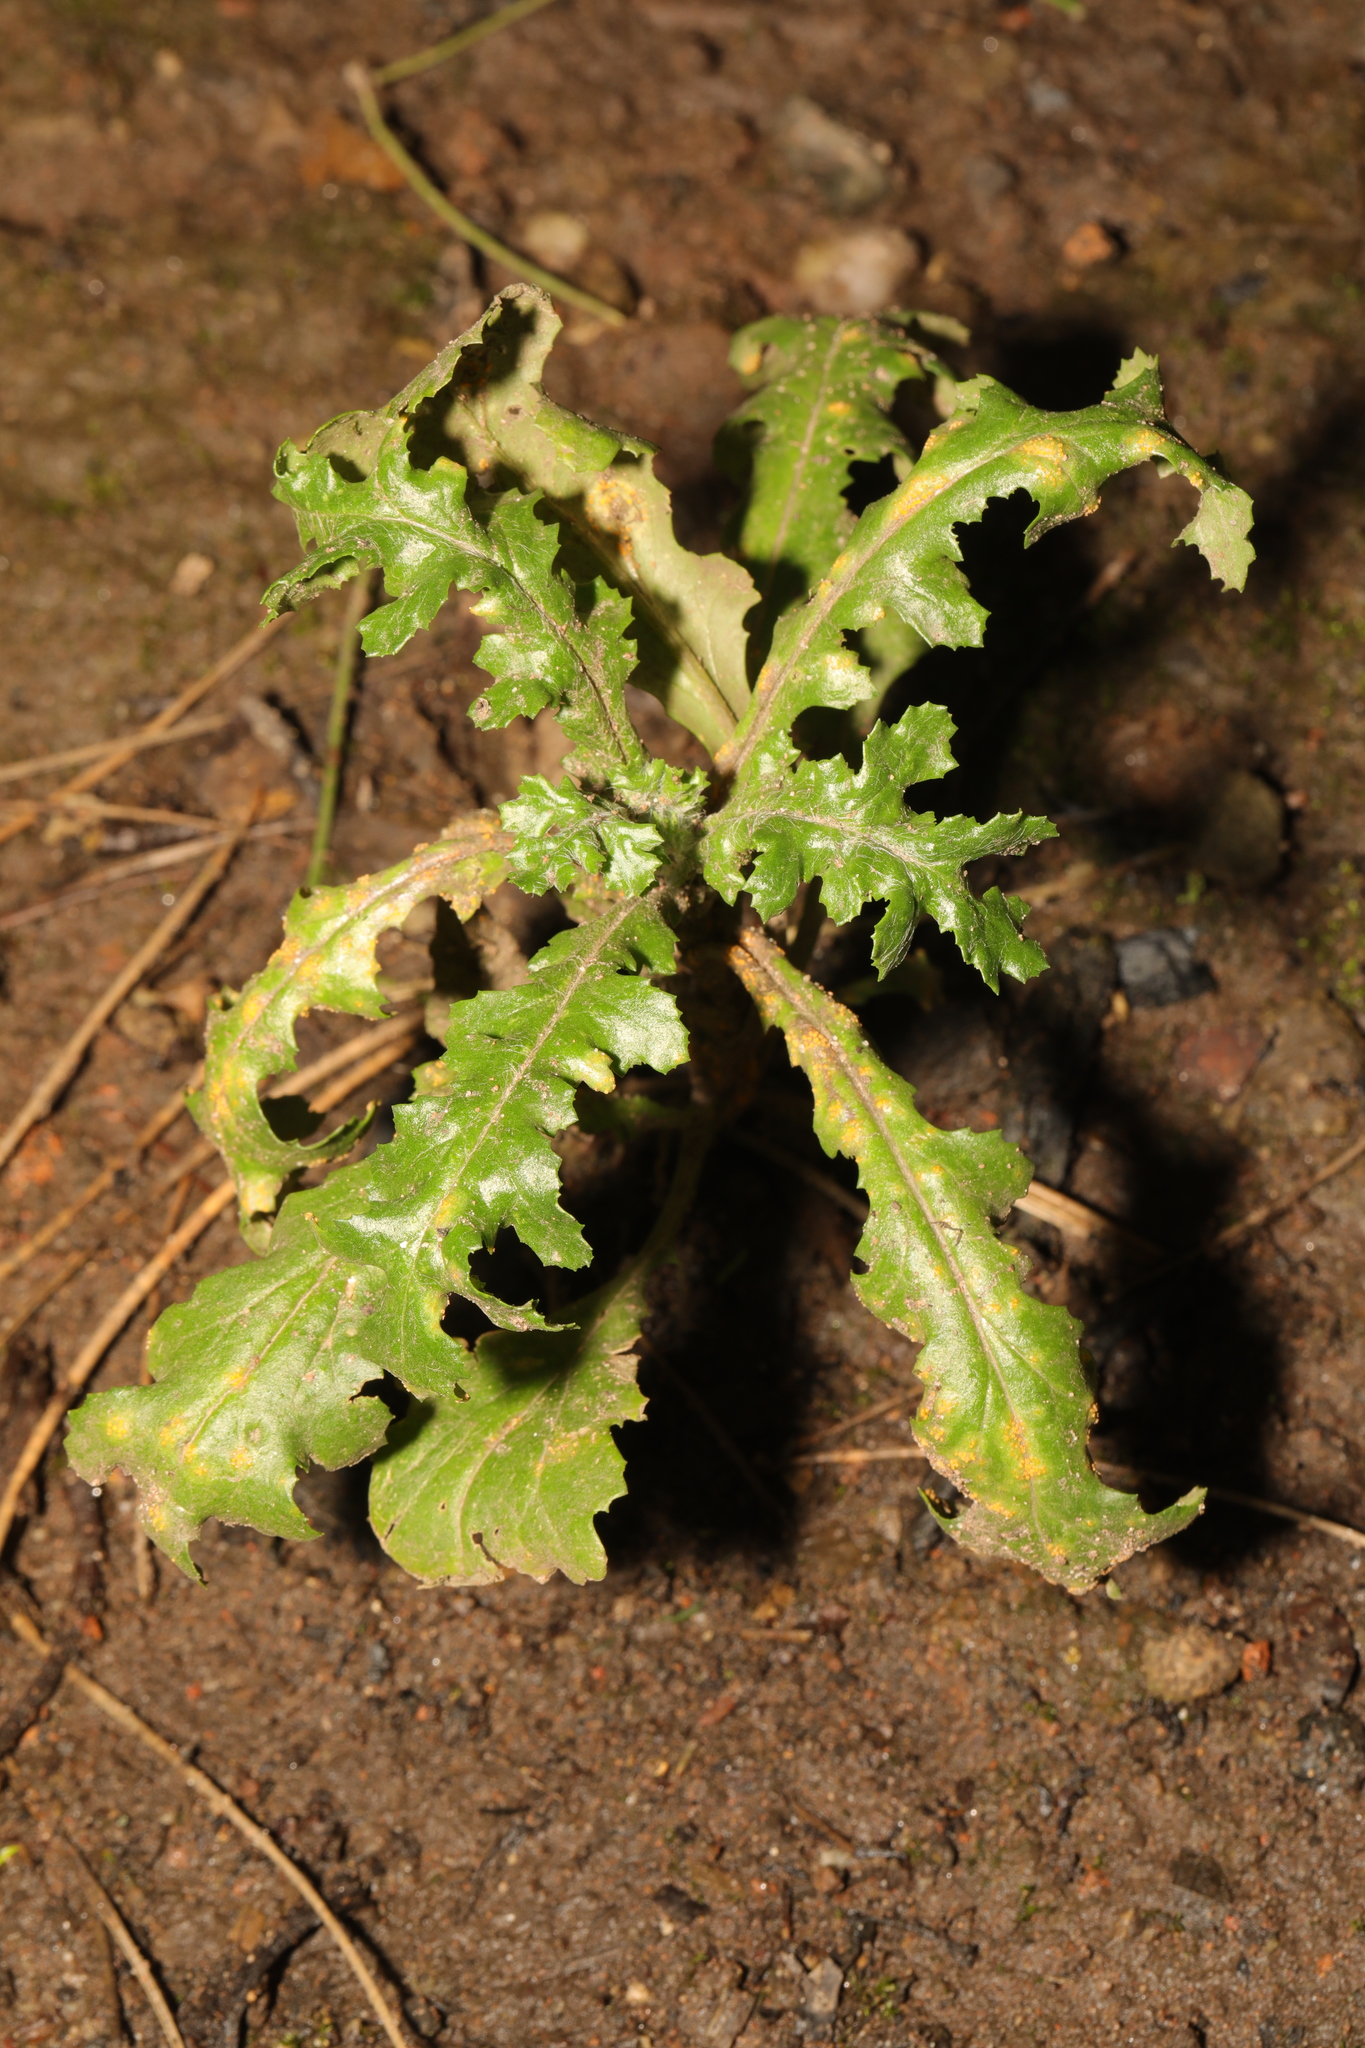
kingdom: Plantae
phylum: Tracheophyta
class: Magnoliopsida
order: Asterales
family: Asteraceae
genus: Senecio
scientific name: Senecio vulgaris
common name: Old-man-in-the-spring
